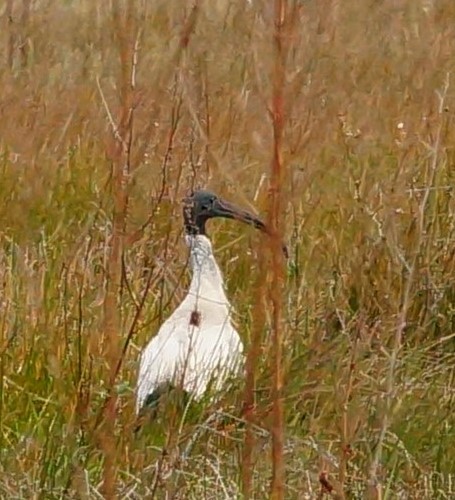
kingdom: Animalia
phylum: Chordata
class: Aves
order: Pelecaniformes
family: Threskiornithidae
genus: Threskiornis
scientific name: Threskiornis molucca
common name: Australian white ibis
